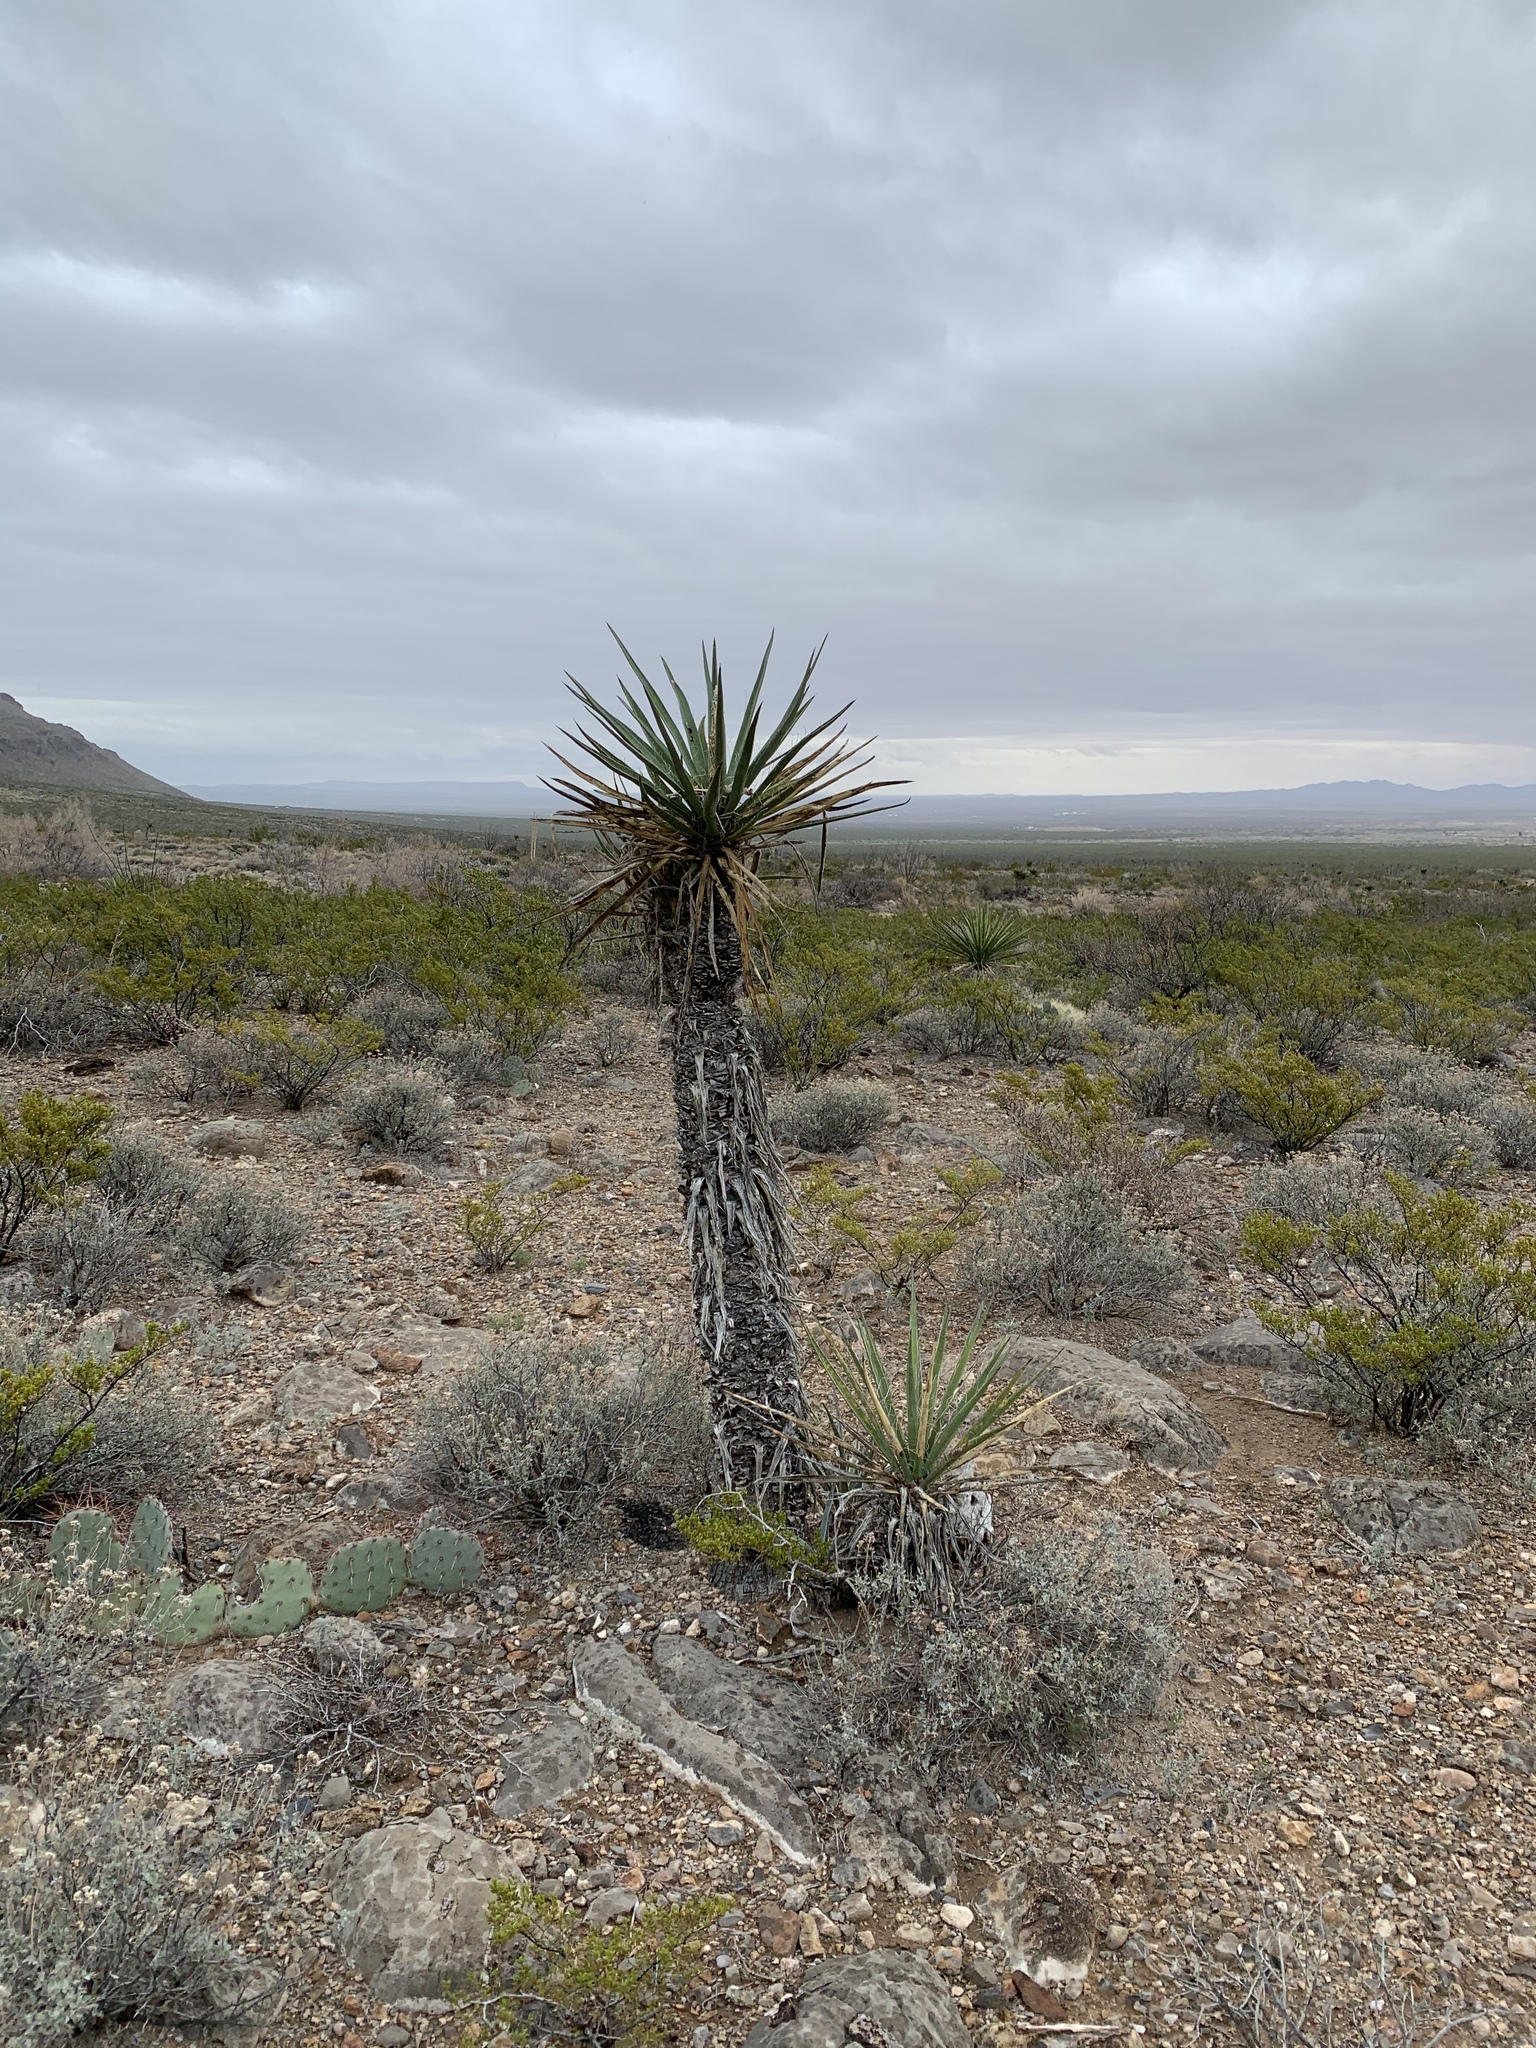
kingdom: Plantae
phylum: Tracheophyta
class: Liliopsida
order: Asparagales
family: Asparagaceae
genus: Yucca
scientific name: Yucca treculiana
